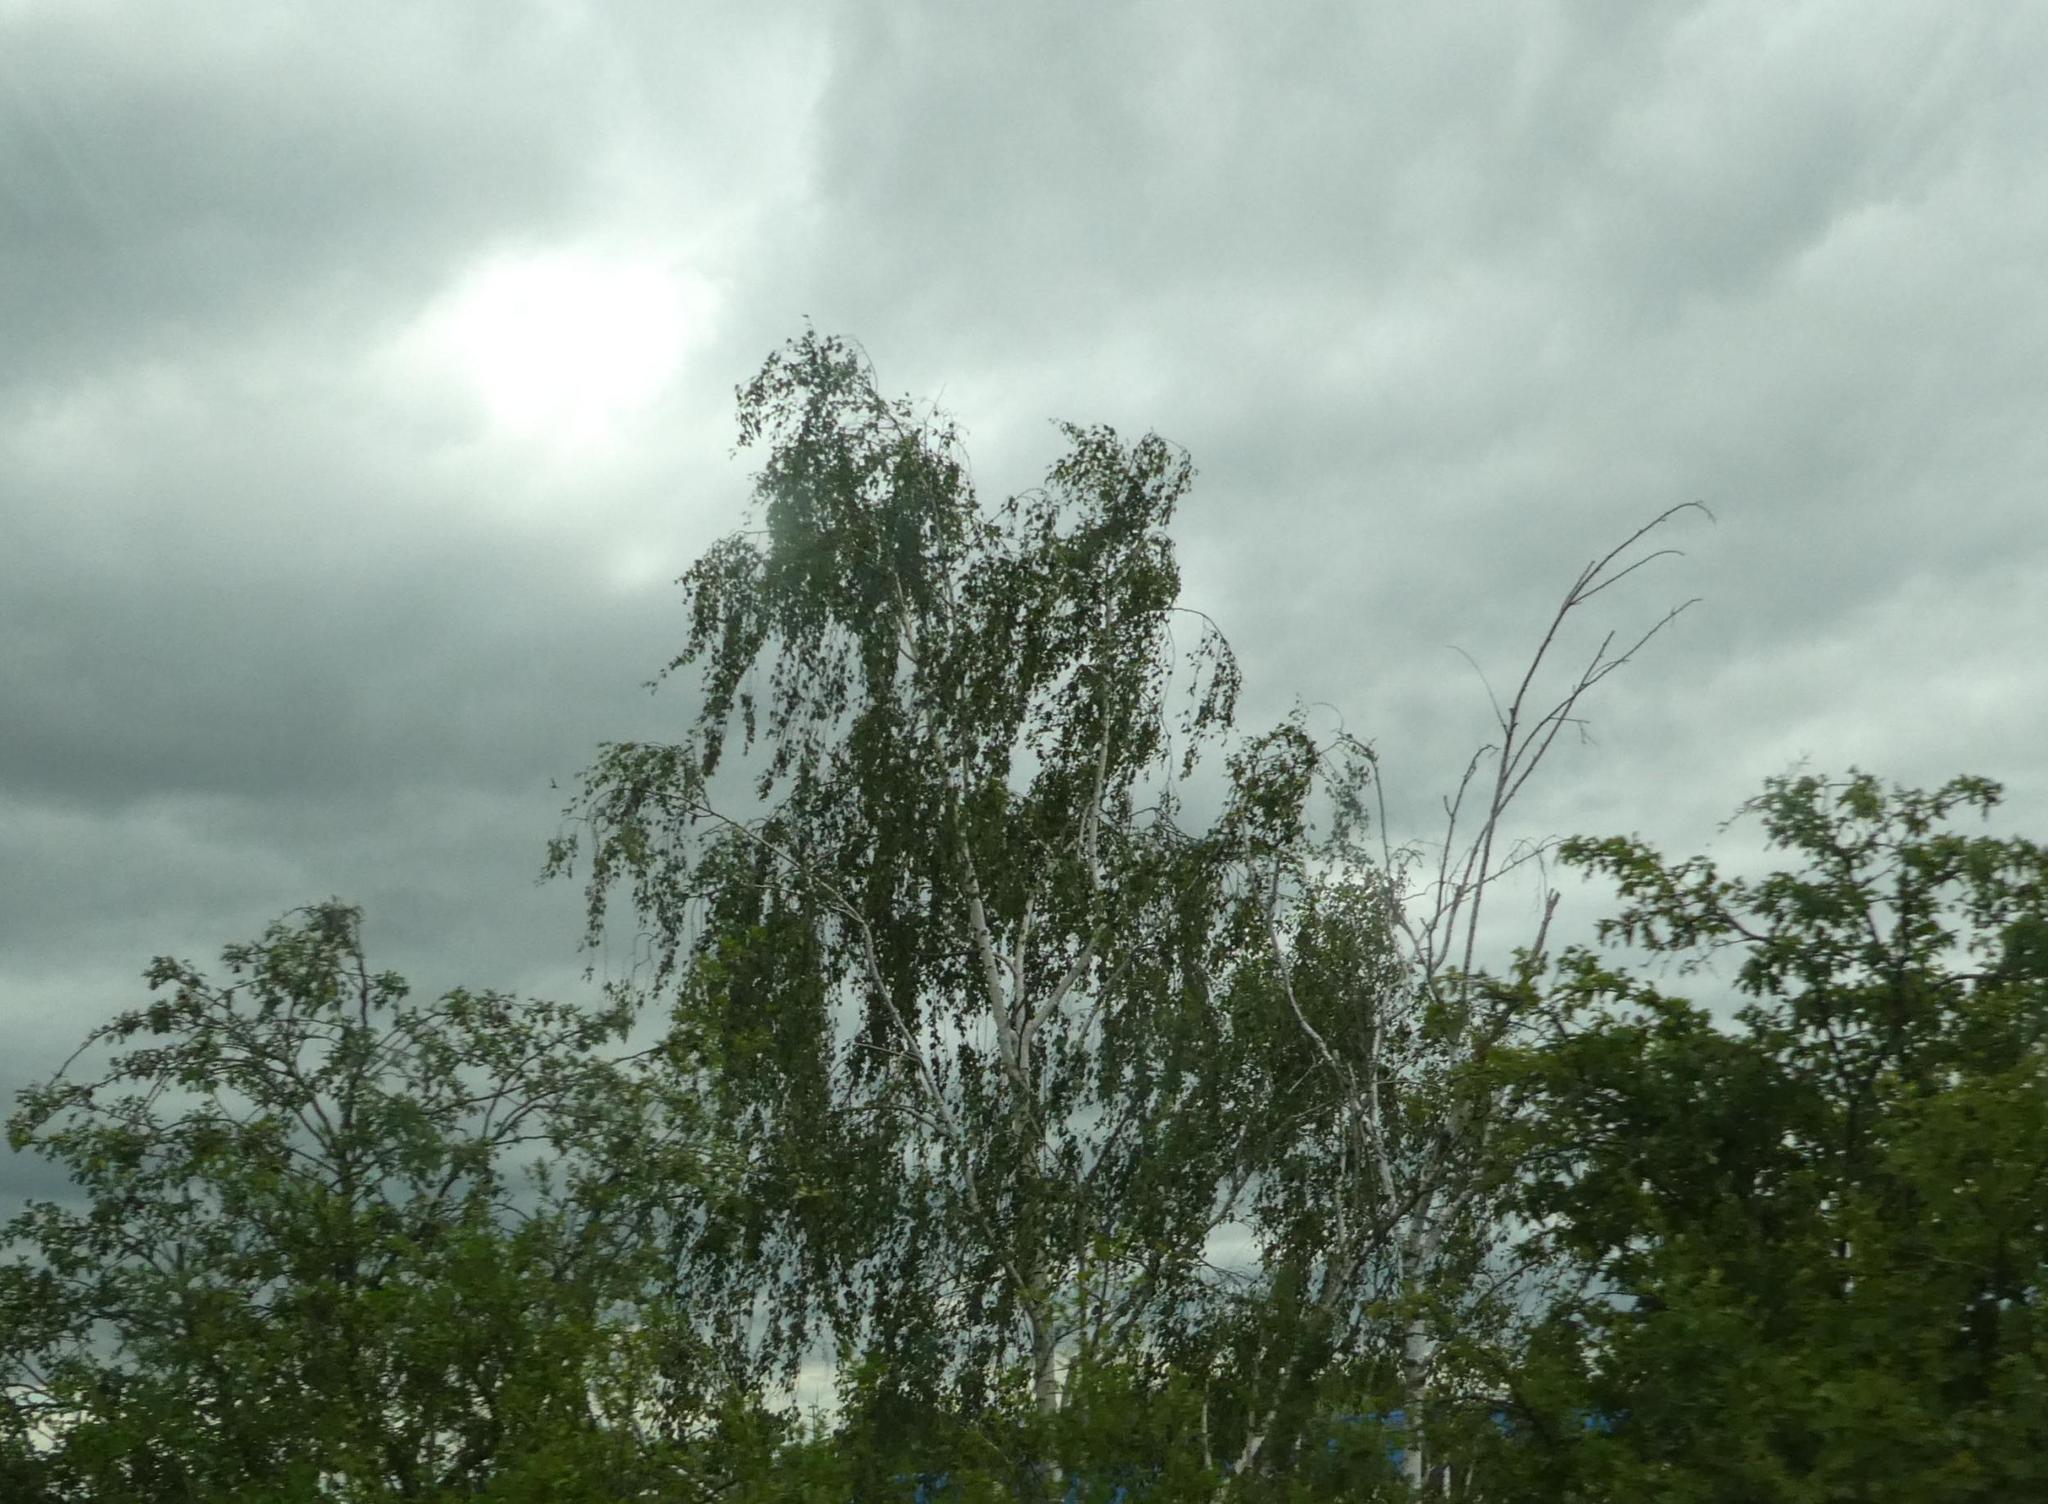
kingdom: Plantae
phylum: Tracheophyta
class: Magnoliopsida
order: Fagales
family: Betulaceae
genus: Betula
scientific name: Betula pendula
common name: Silver birch
